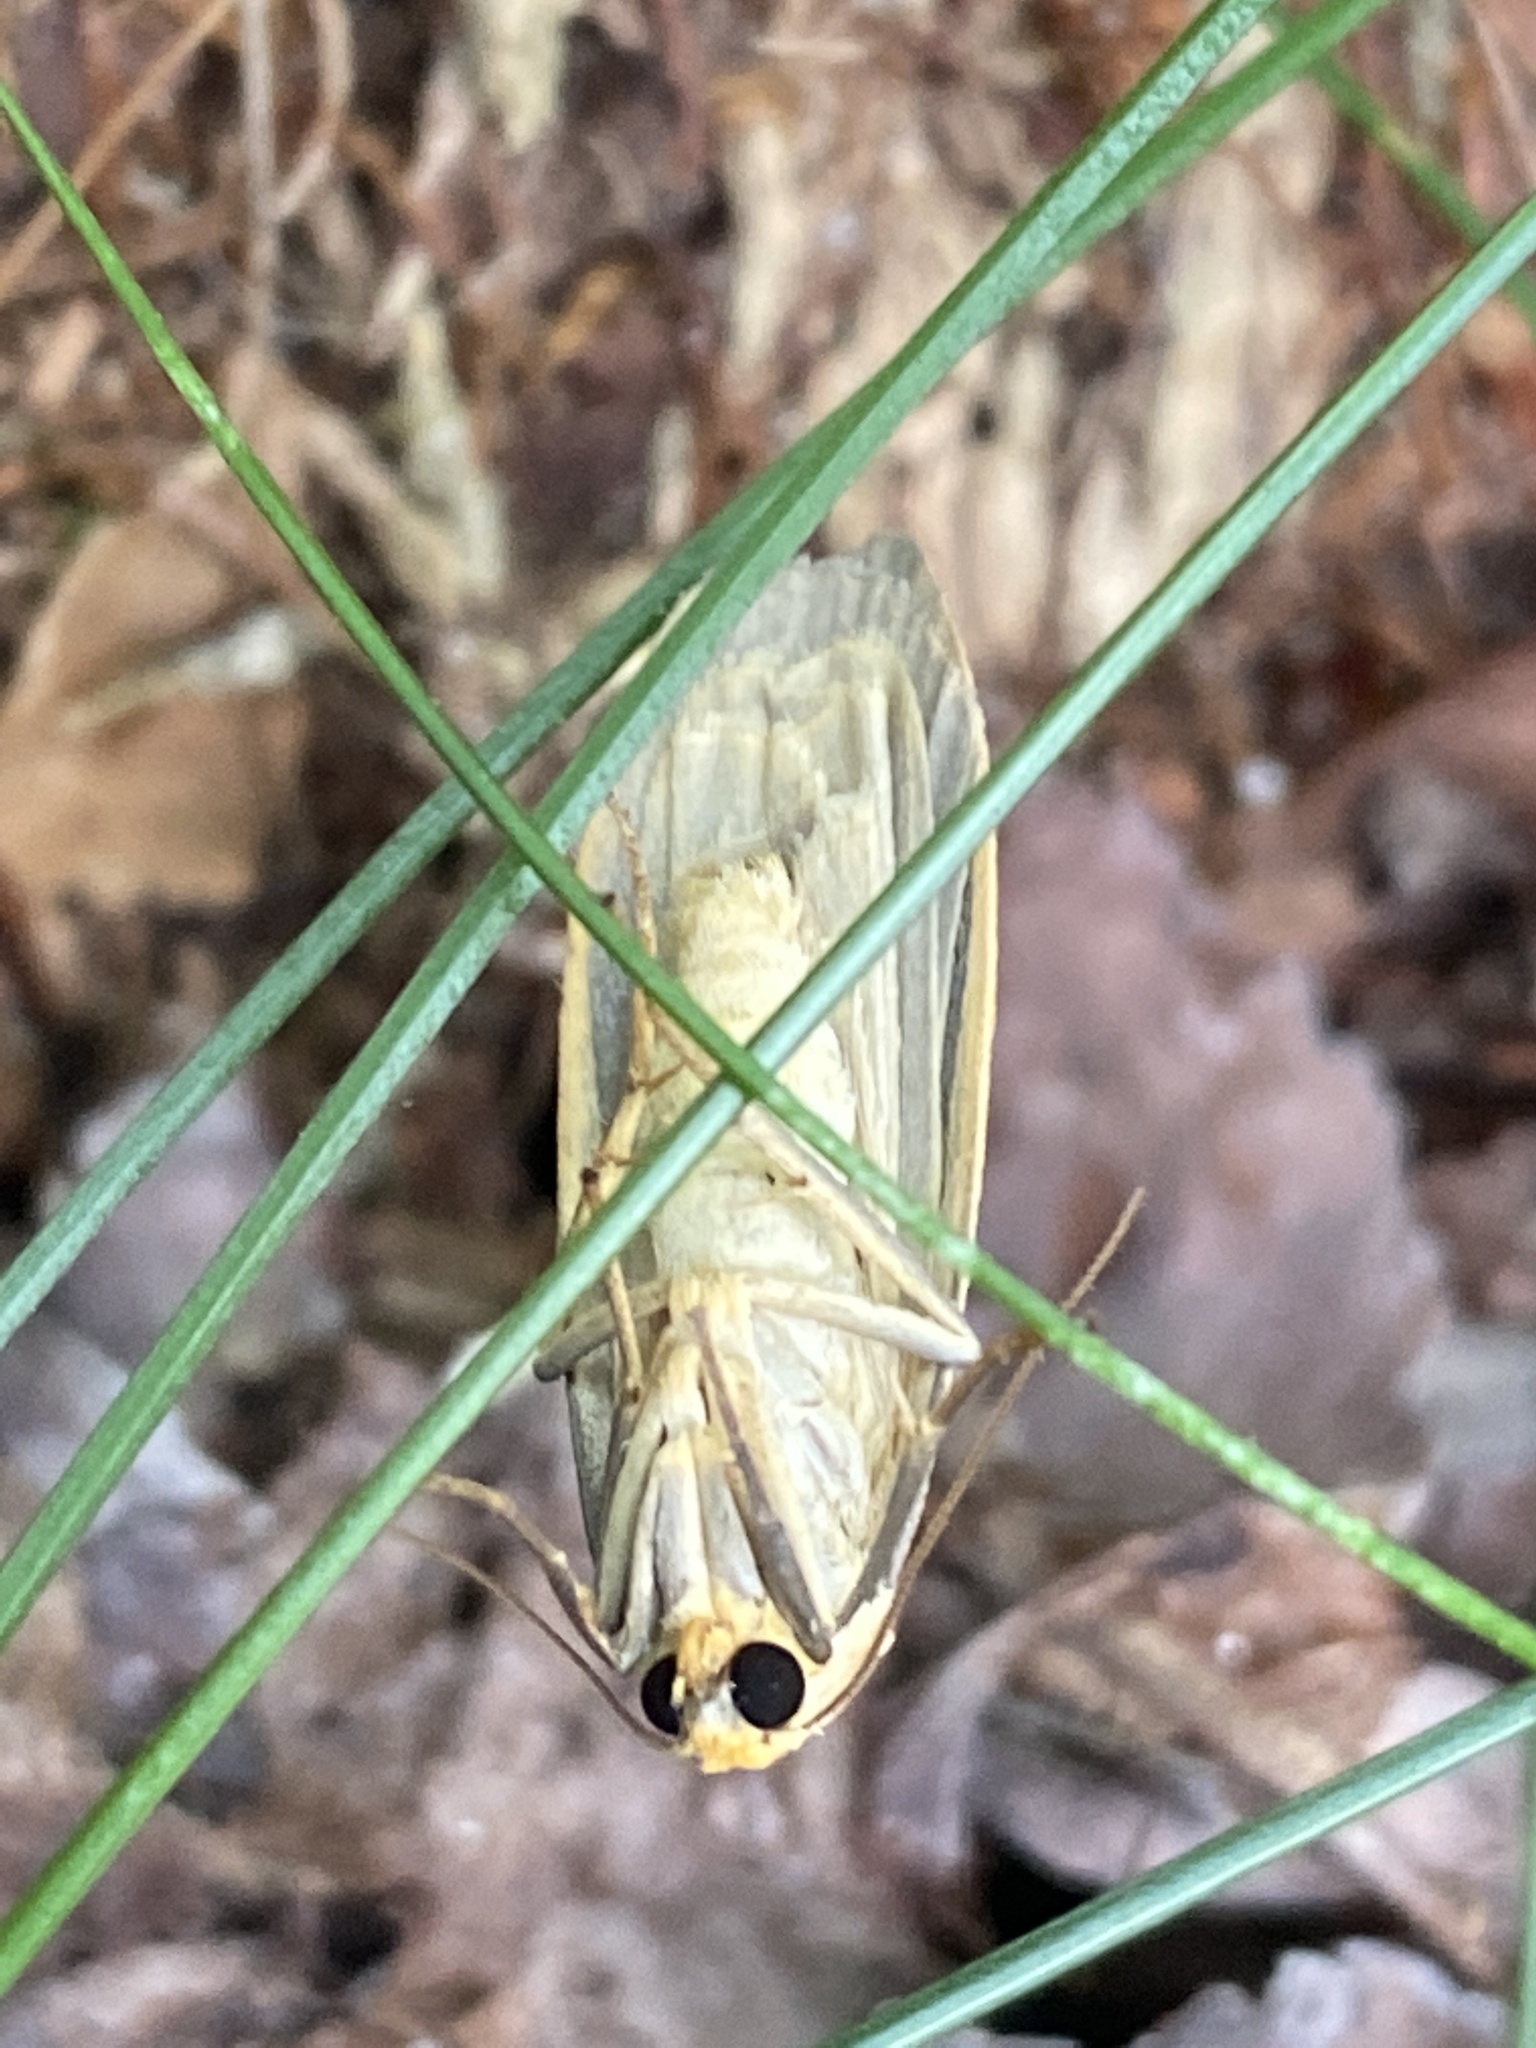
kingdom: Animalia
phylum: Arthropoda
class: Insecta
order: Lepidoptera
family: Erebidae
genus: Collita
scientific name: Collita griseola
